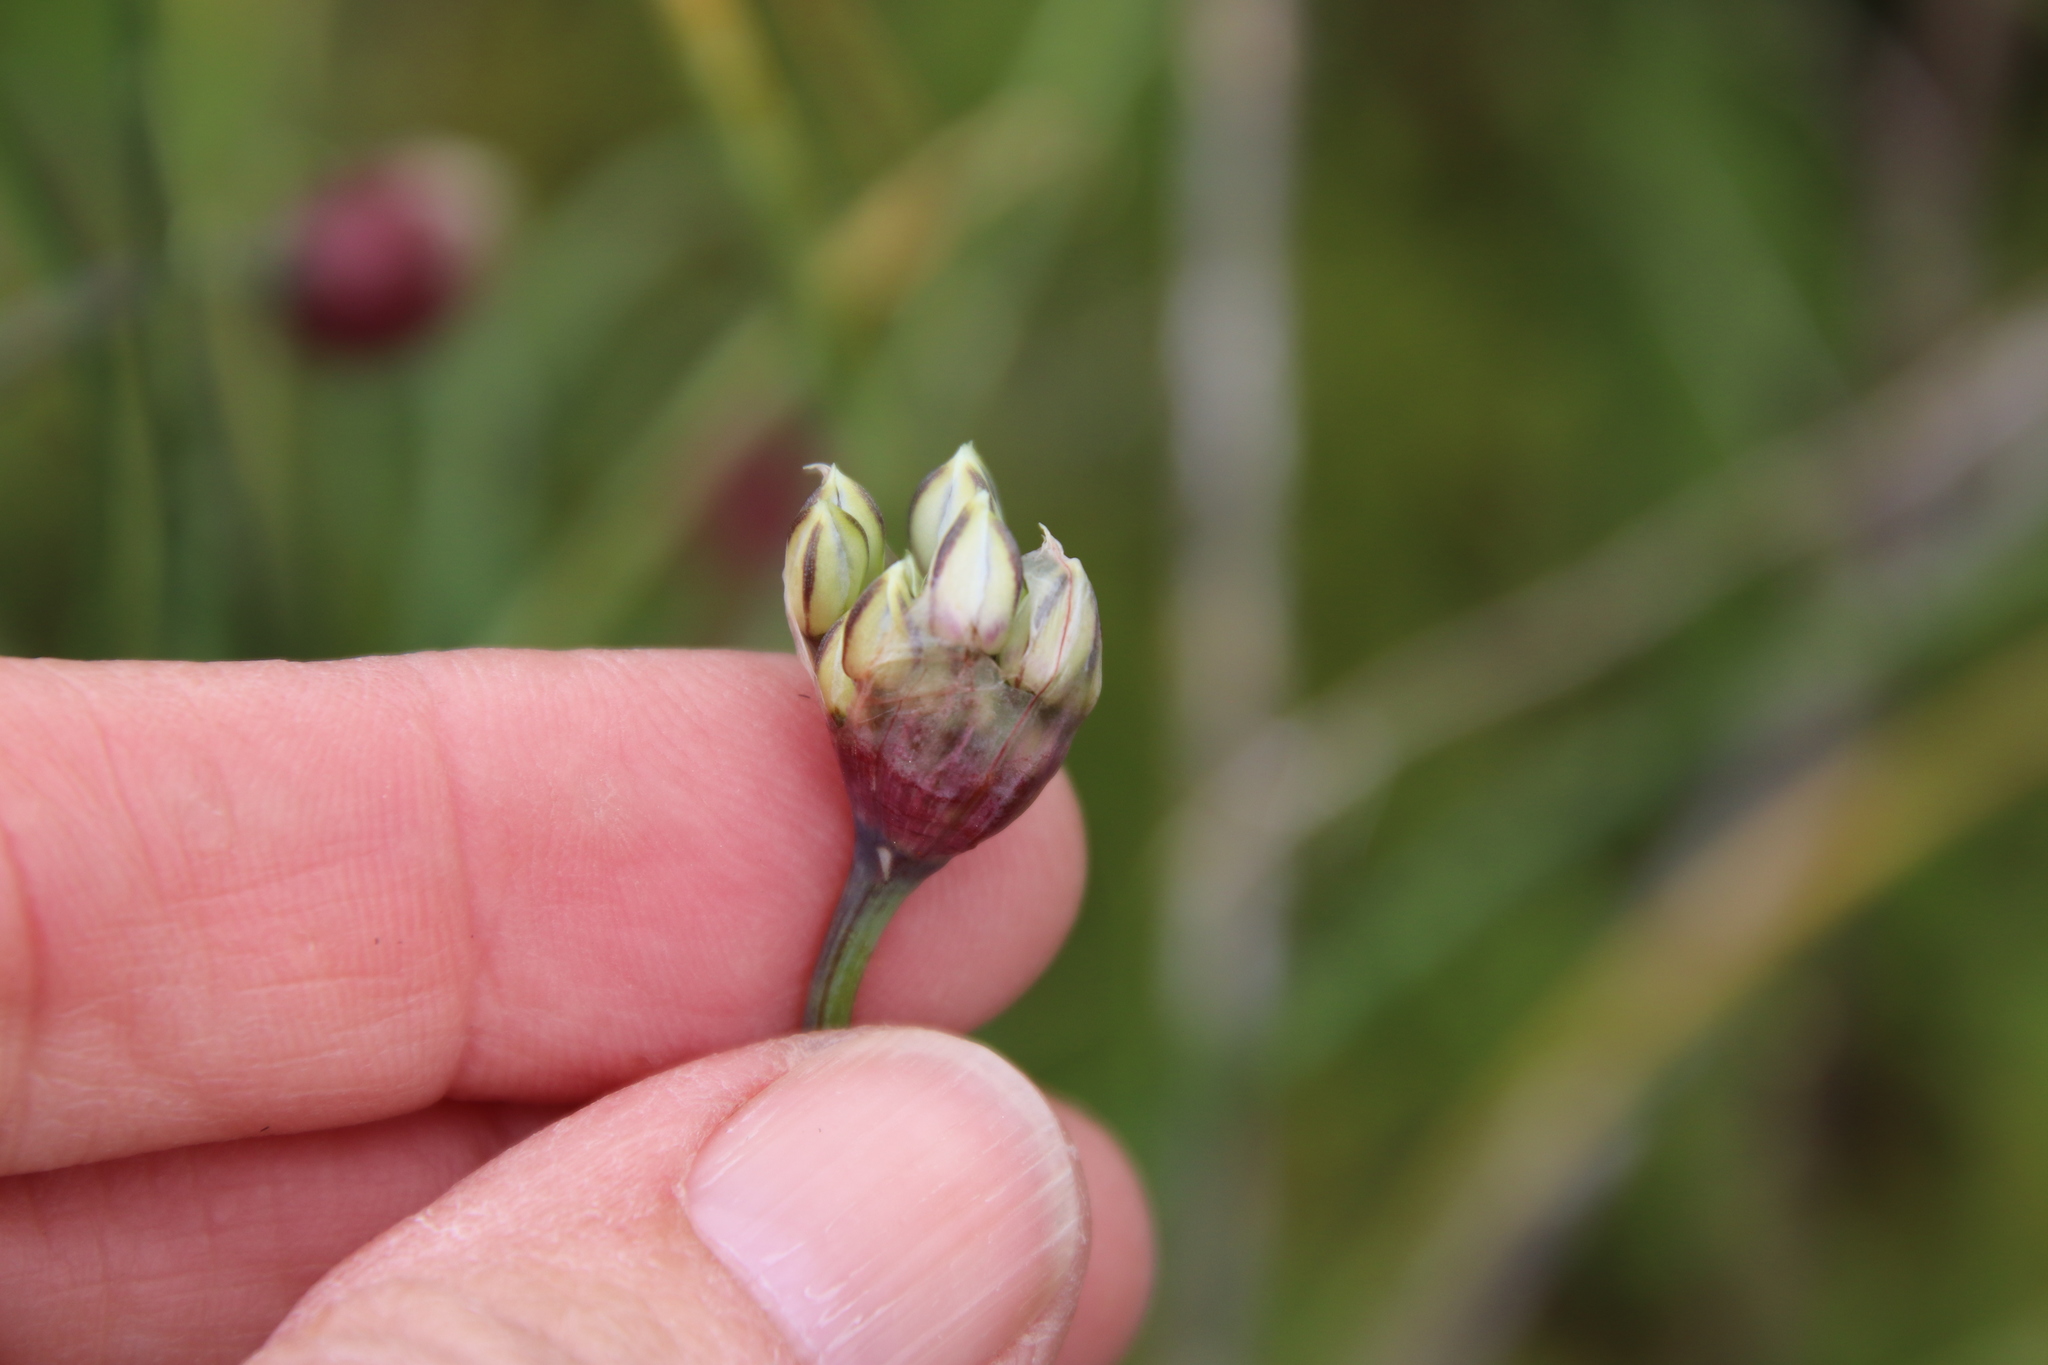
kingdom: Plantae
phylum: Tracheophyta
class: Liliopsida
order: Asparagales
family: Amaryllidaceae
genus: Allium
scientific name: Allium haematochiton
